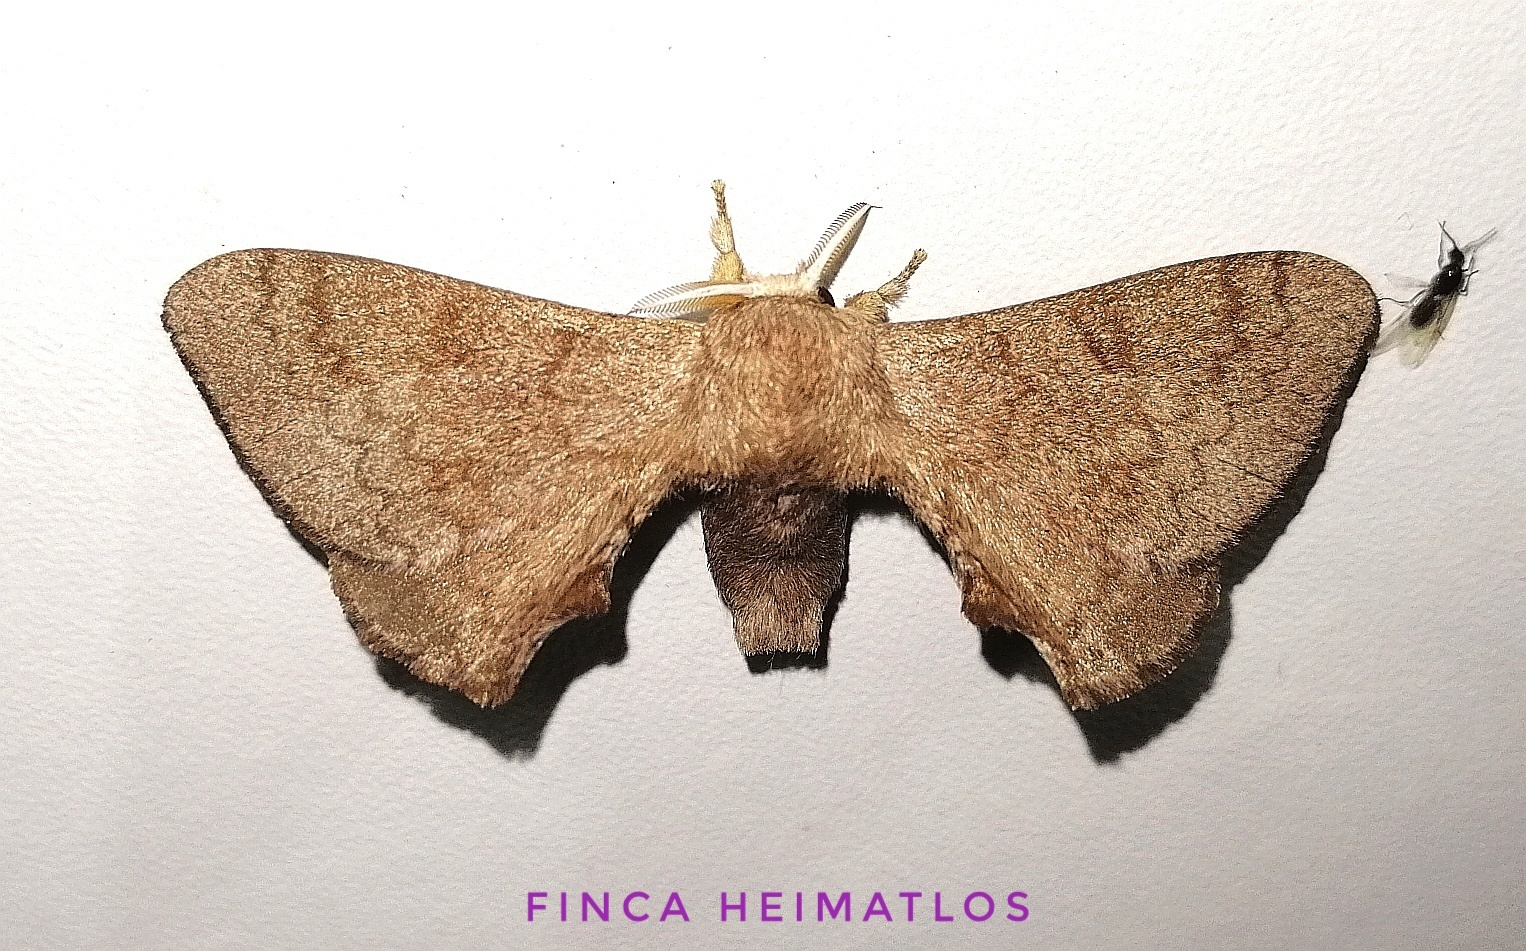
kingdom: Animalia
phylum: Arthropoda
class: Insecta
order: Lepidoptera
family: Bombycidae
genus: Epia
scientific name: Epia lunilinea
